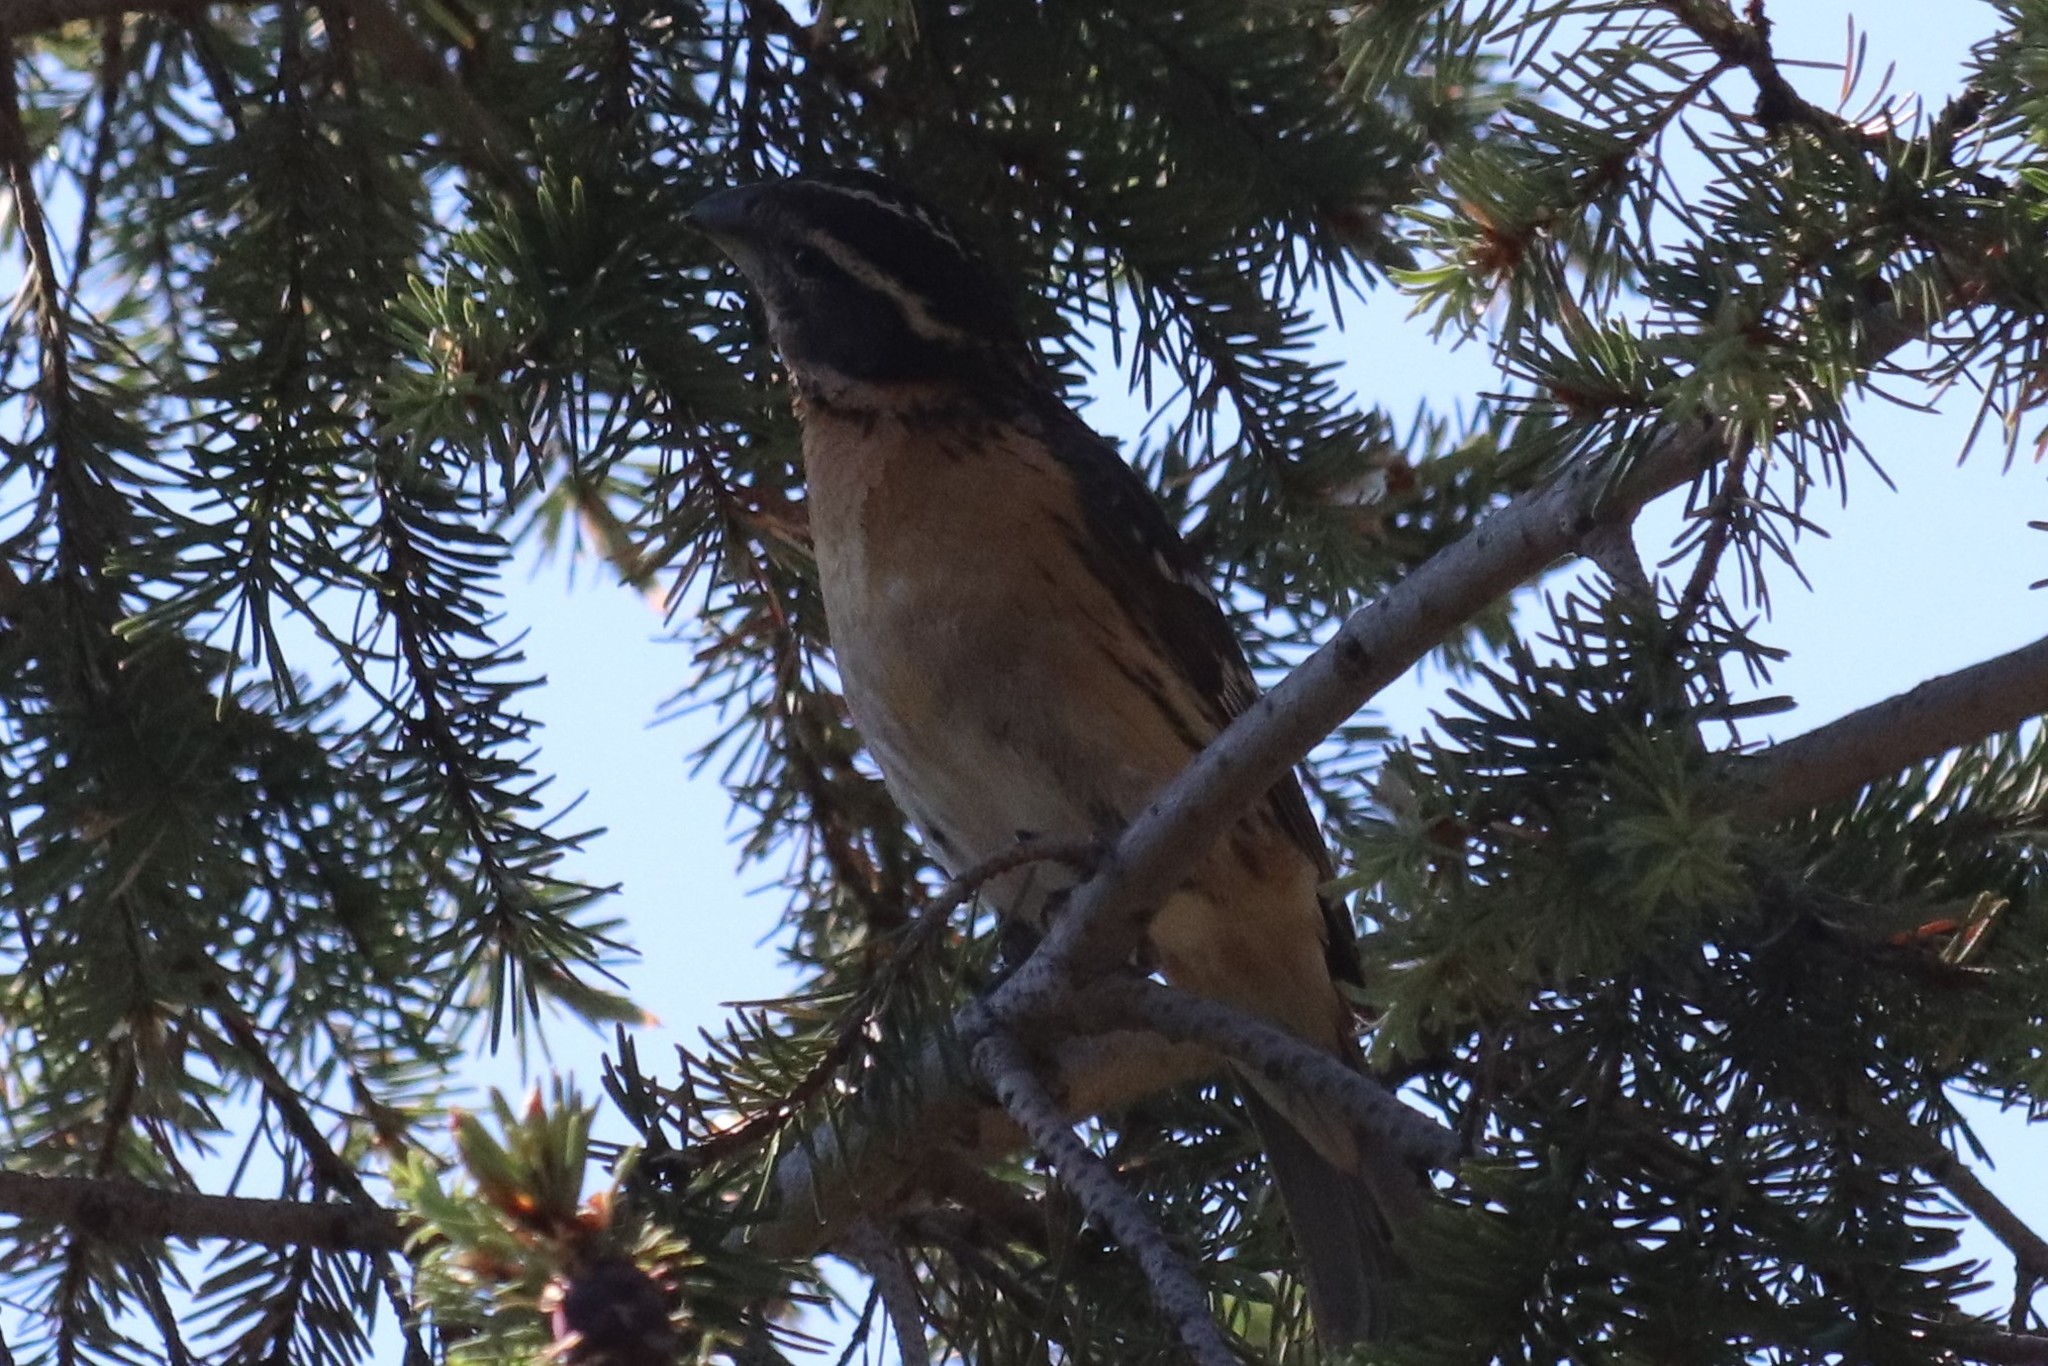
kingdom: Animalia
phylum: Chordata
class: Aves
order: Passeriformes
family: Cardinalidae
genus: Pheucticus
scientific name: Pheucticus melanocephalus
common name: Black-headed grosbeak
